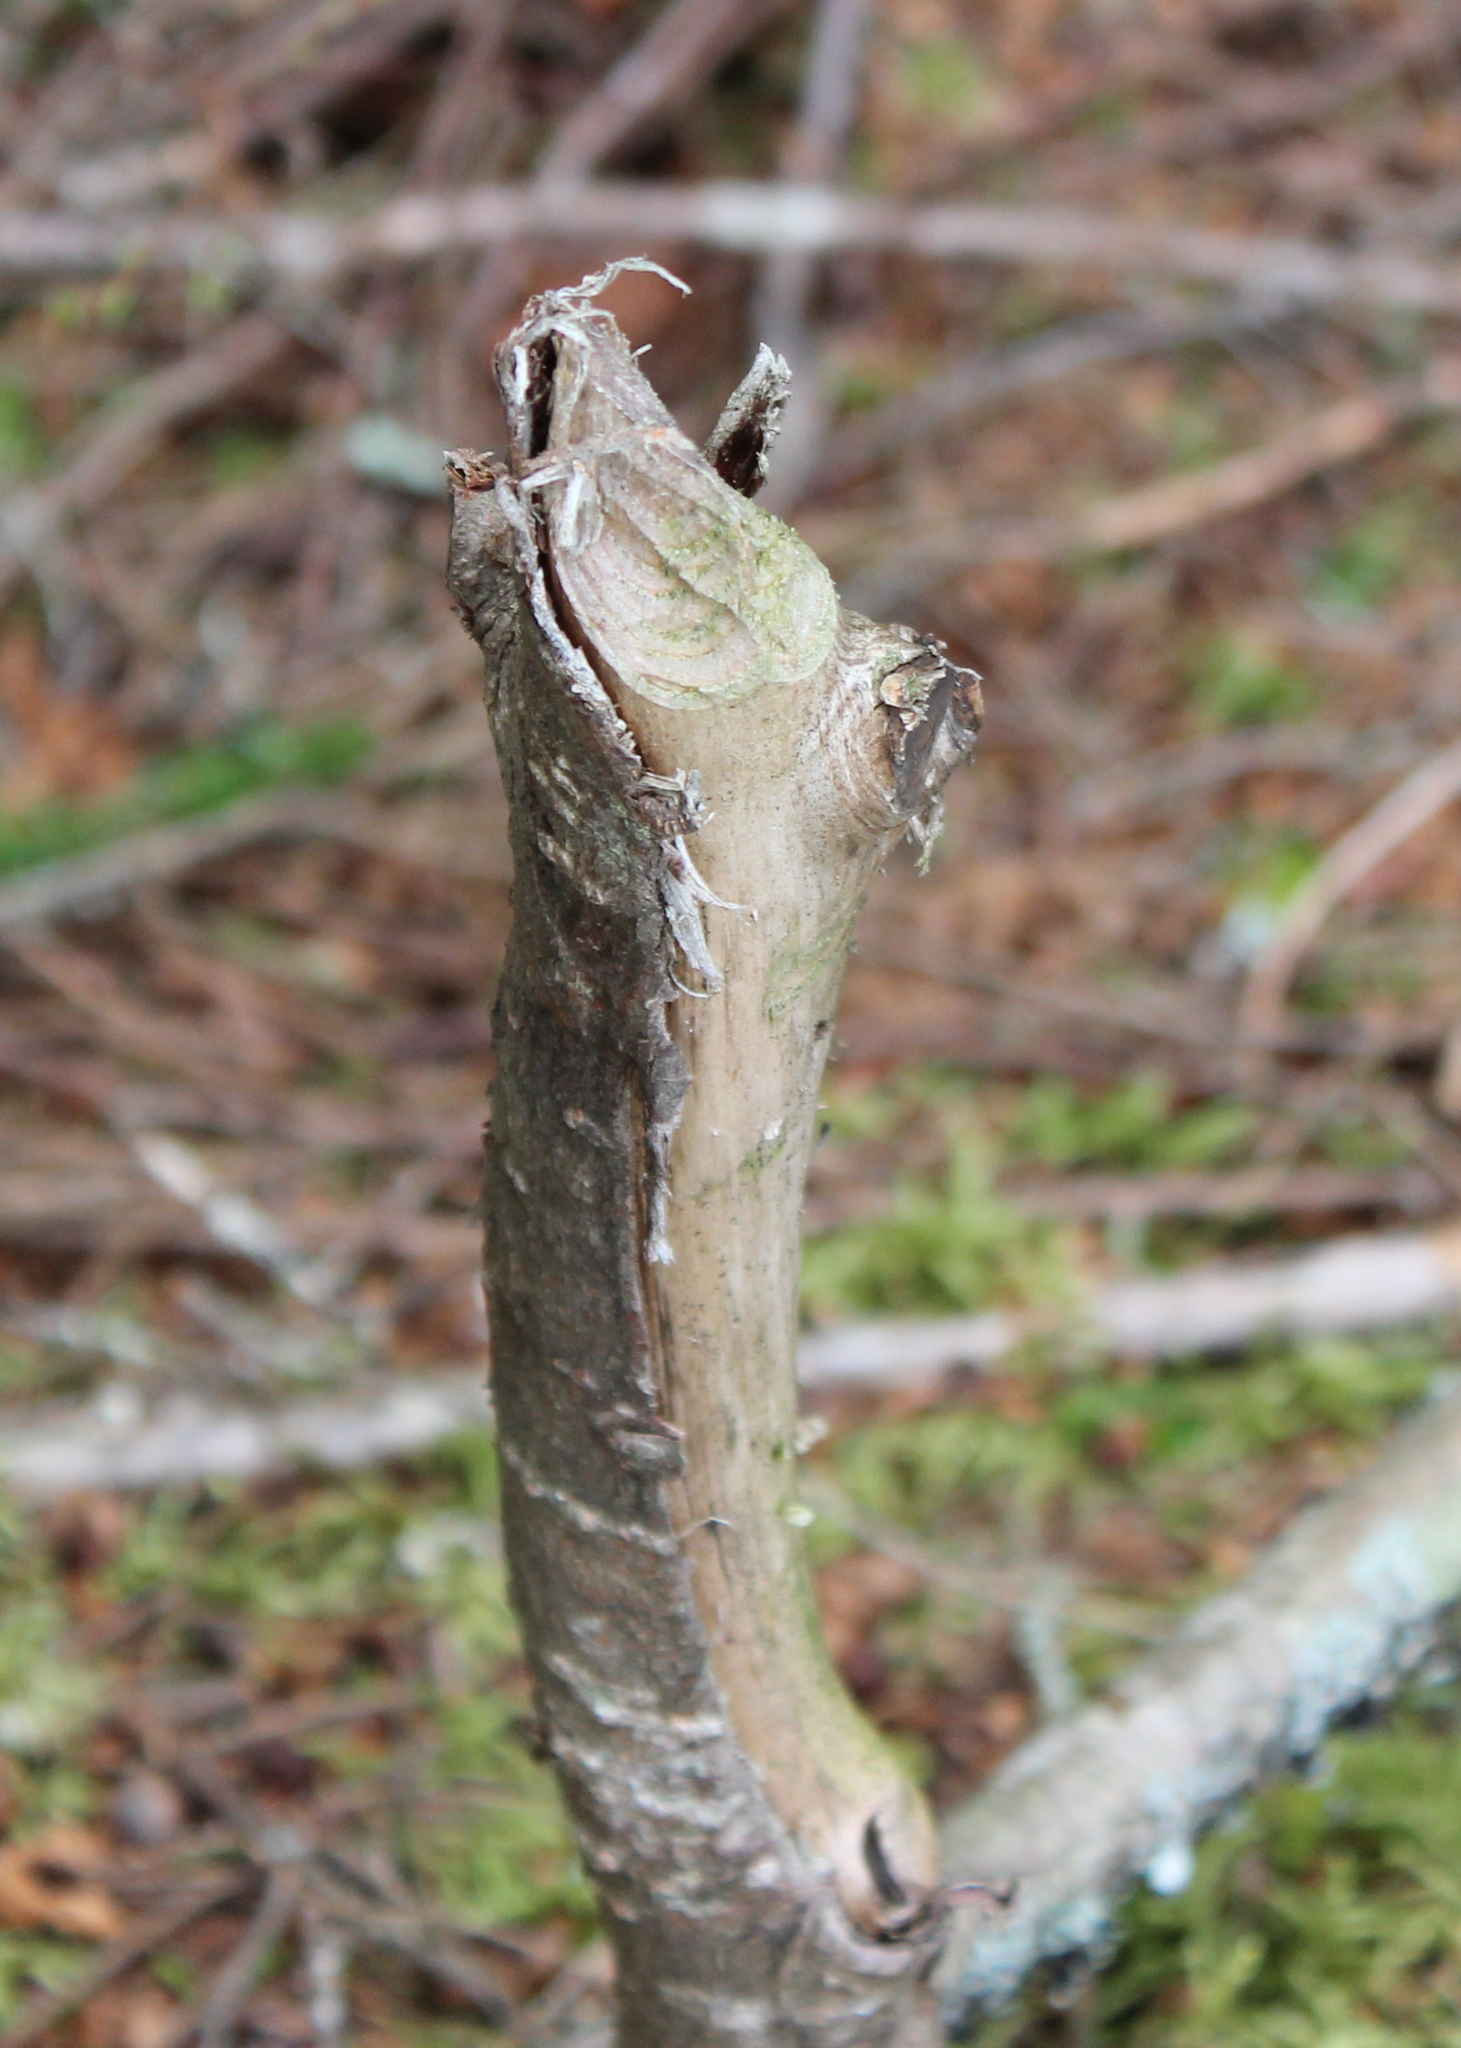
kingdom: Animalia
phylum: Chordata
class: Mammalia
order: Rodentia
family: Castoridae
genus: Castor
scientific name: Castor canadensis
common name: American beaver
